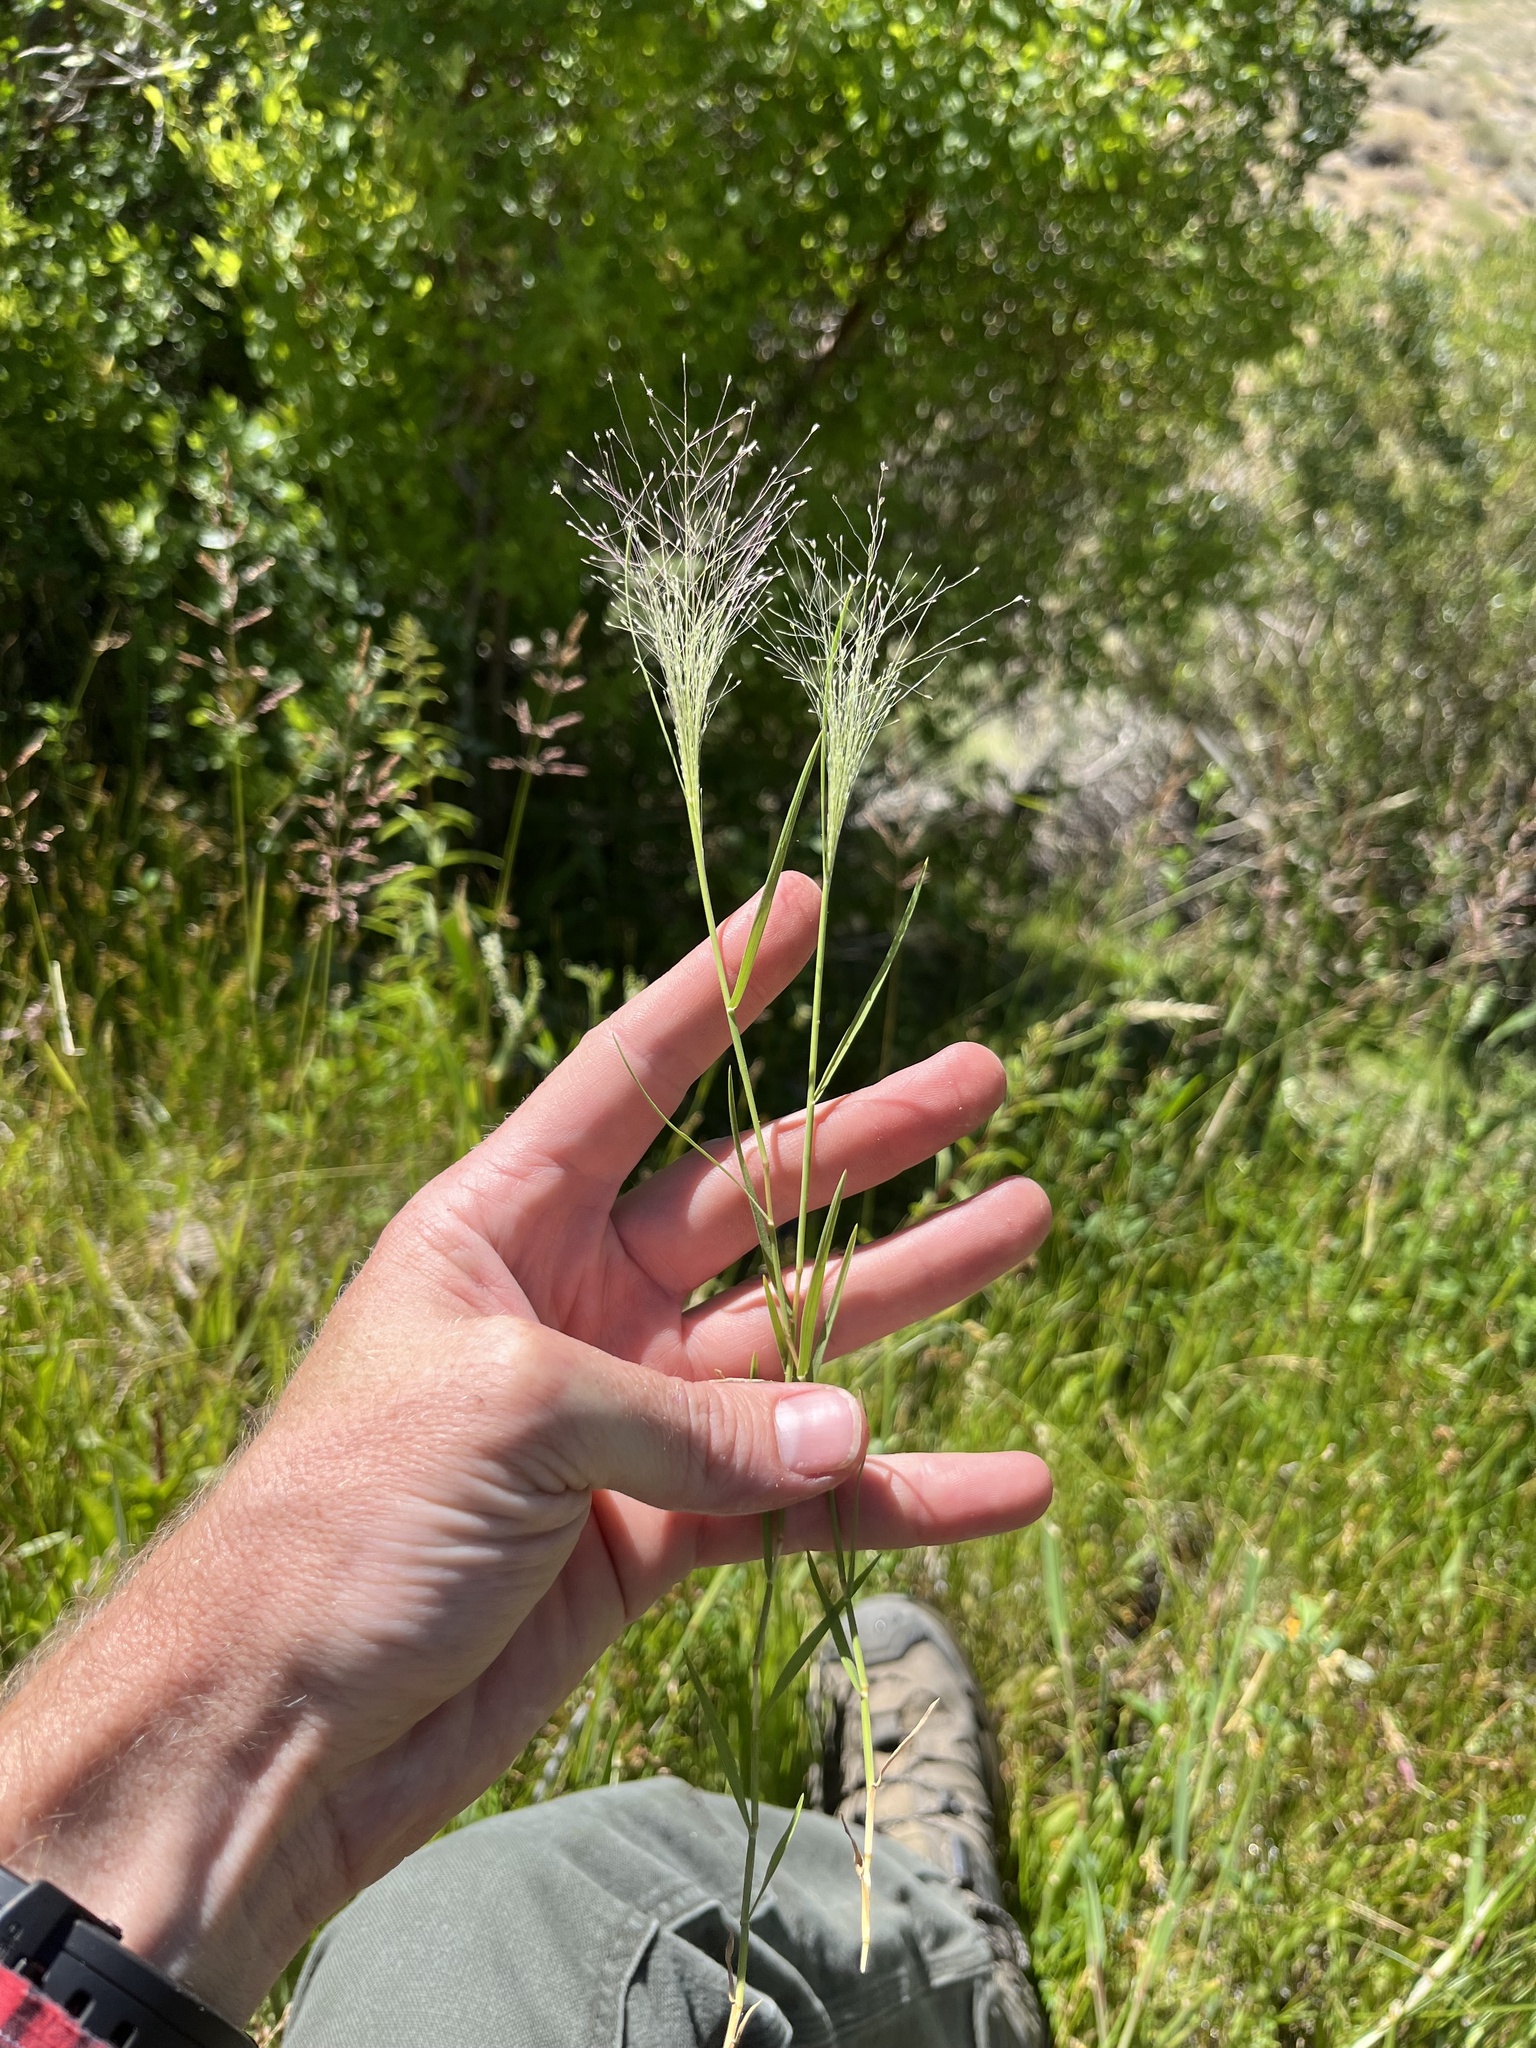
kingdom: Plantae
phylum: Tracheophyta
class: Liliopsida
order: Poales
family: Poaceae
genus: Muhlenbergia
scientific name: Muhlenbergia asperifolia
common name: Alkali muhly
